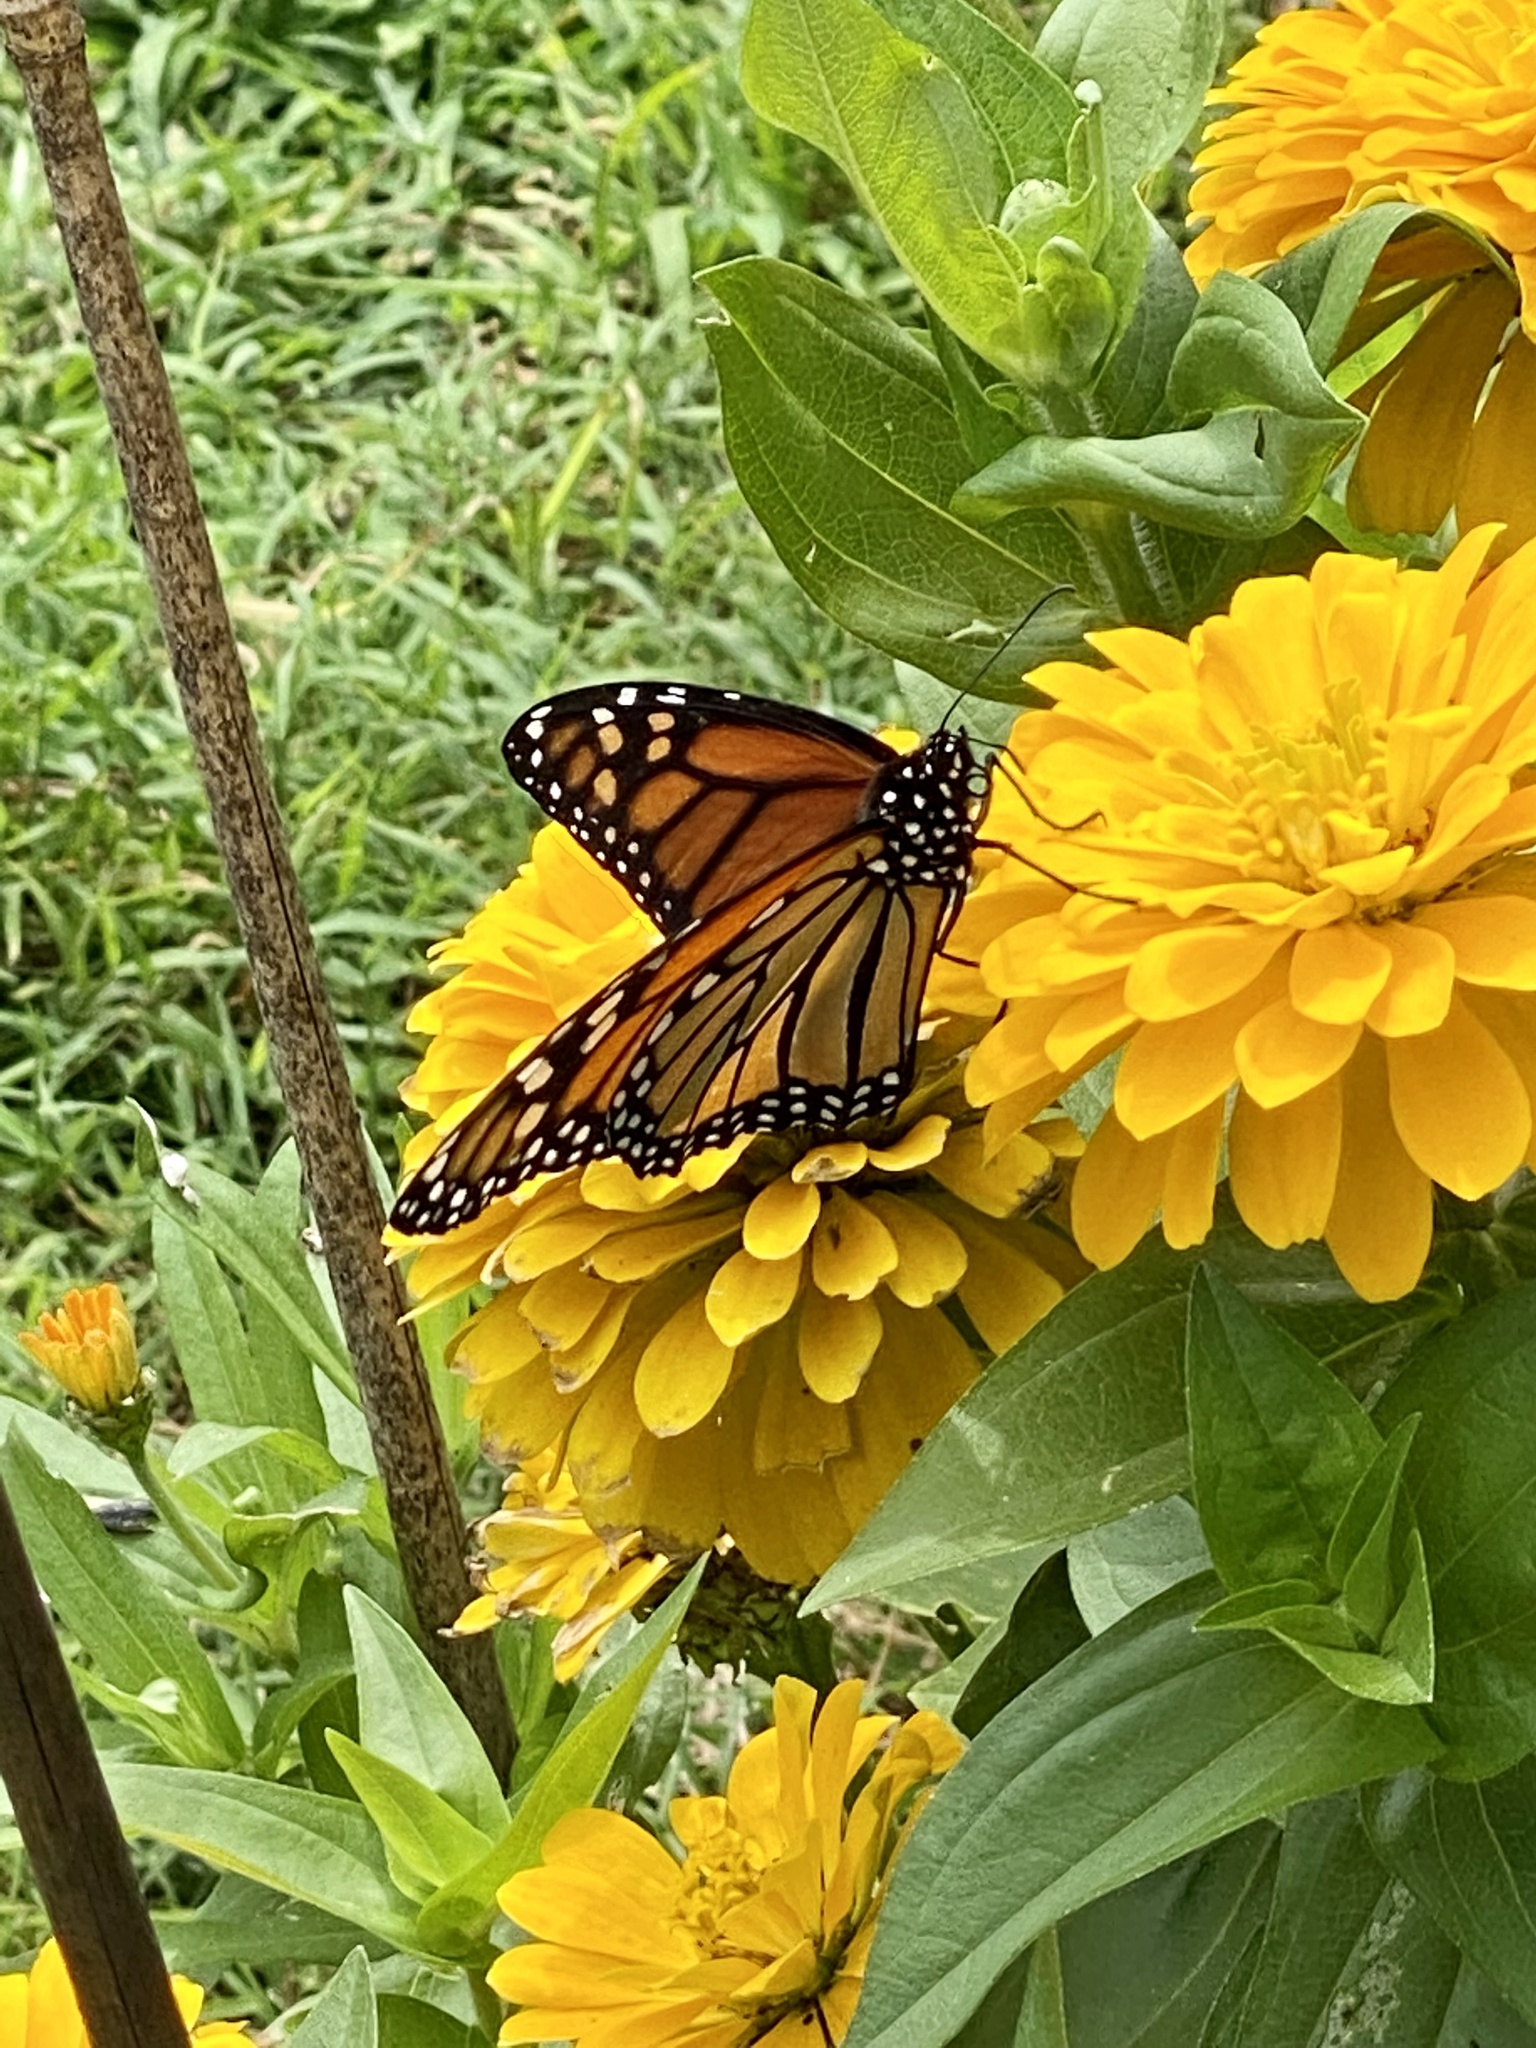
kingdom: Animalia
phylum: Arthropoda
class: Insecta
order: Lepidoptera
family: Nymphalidae
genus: Danaus
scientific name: Danaus plexippus
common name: Monarch
